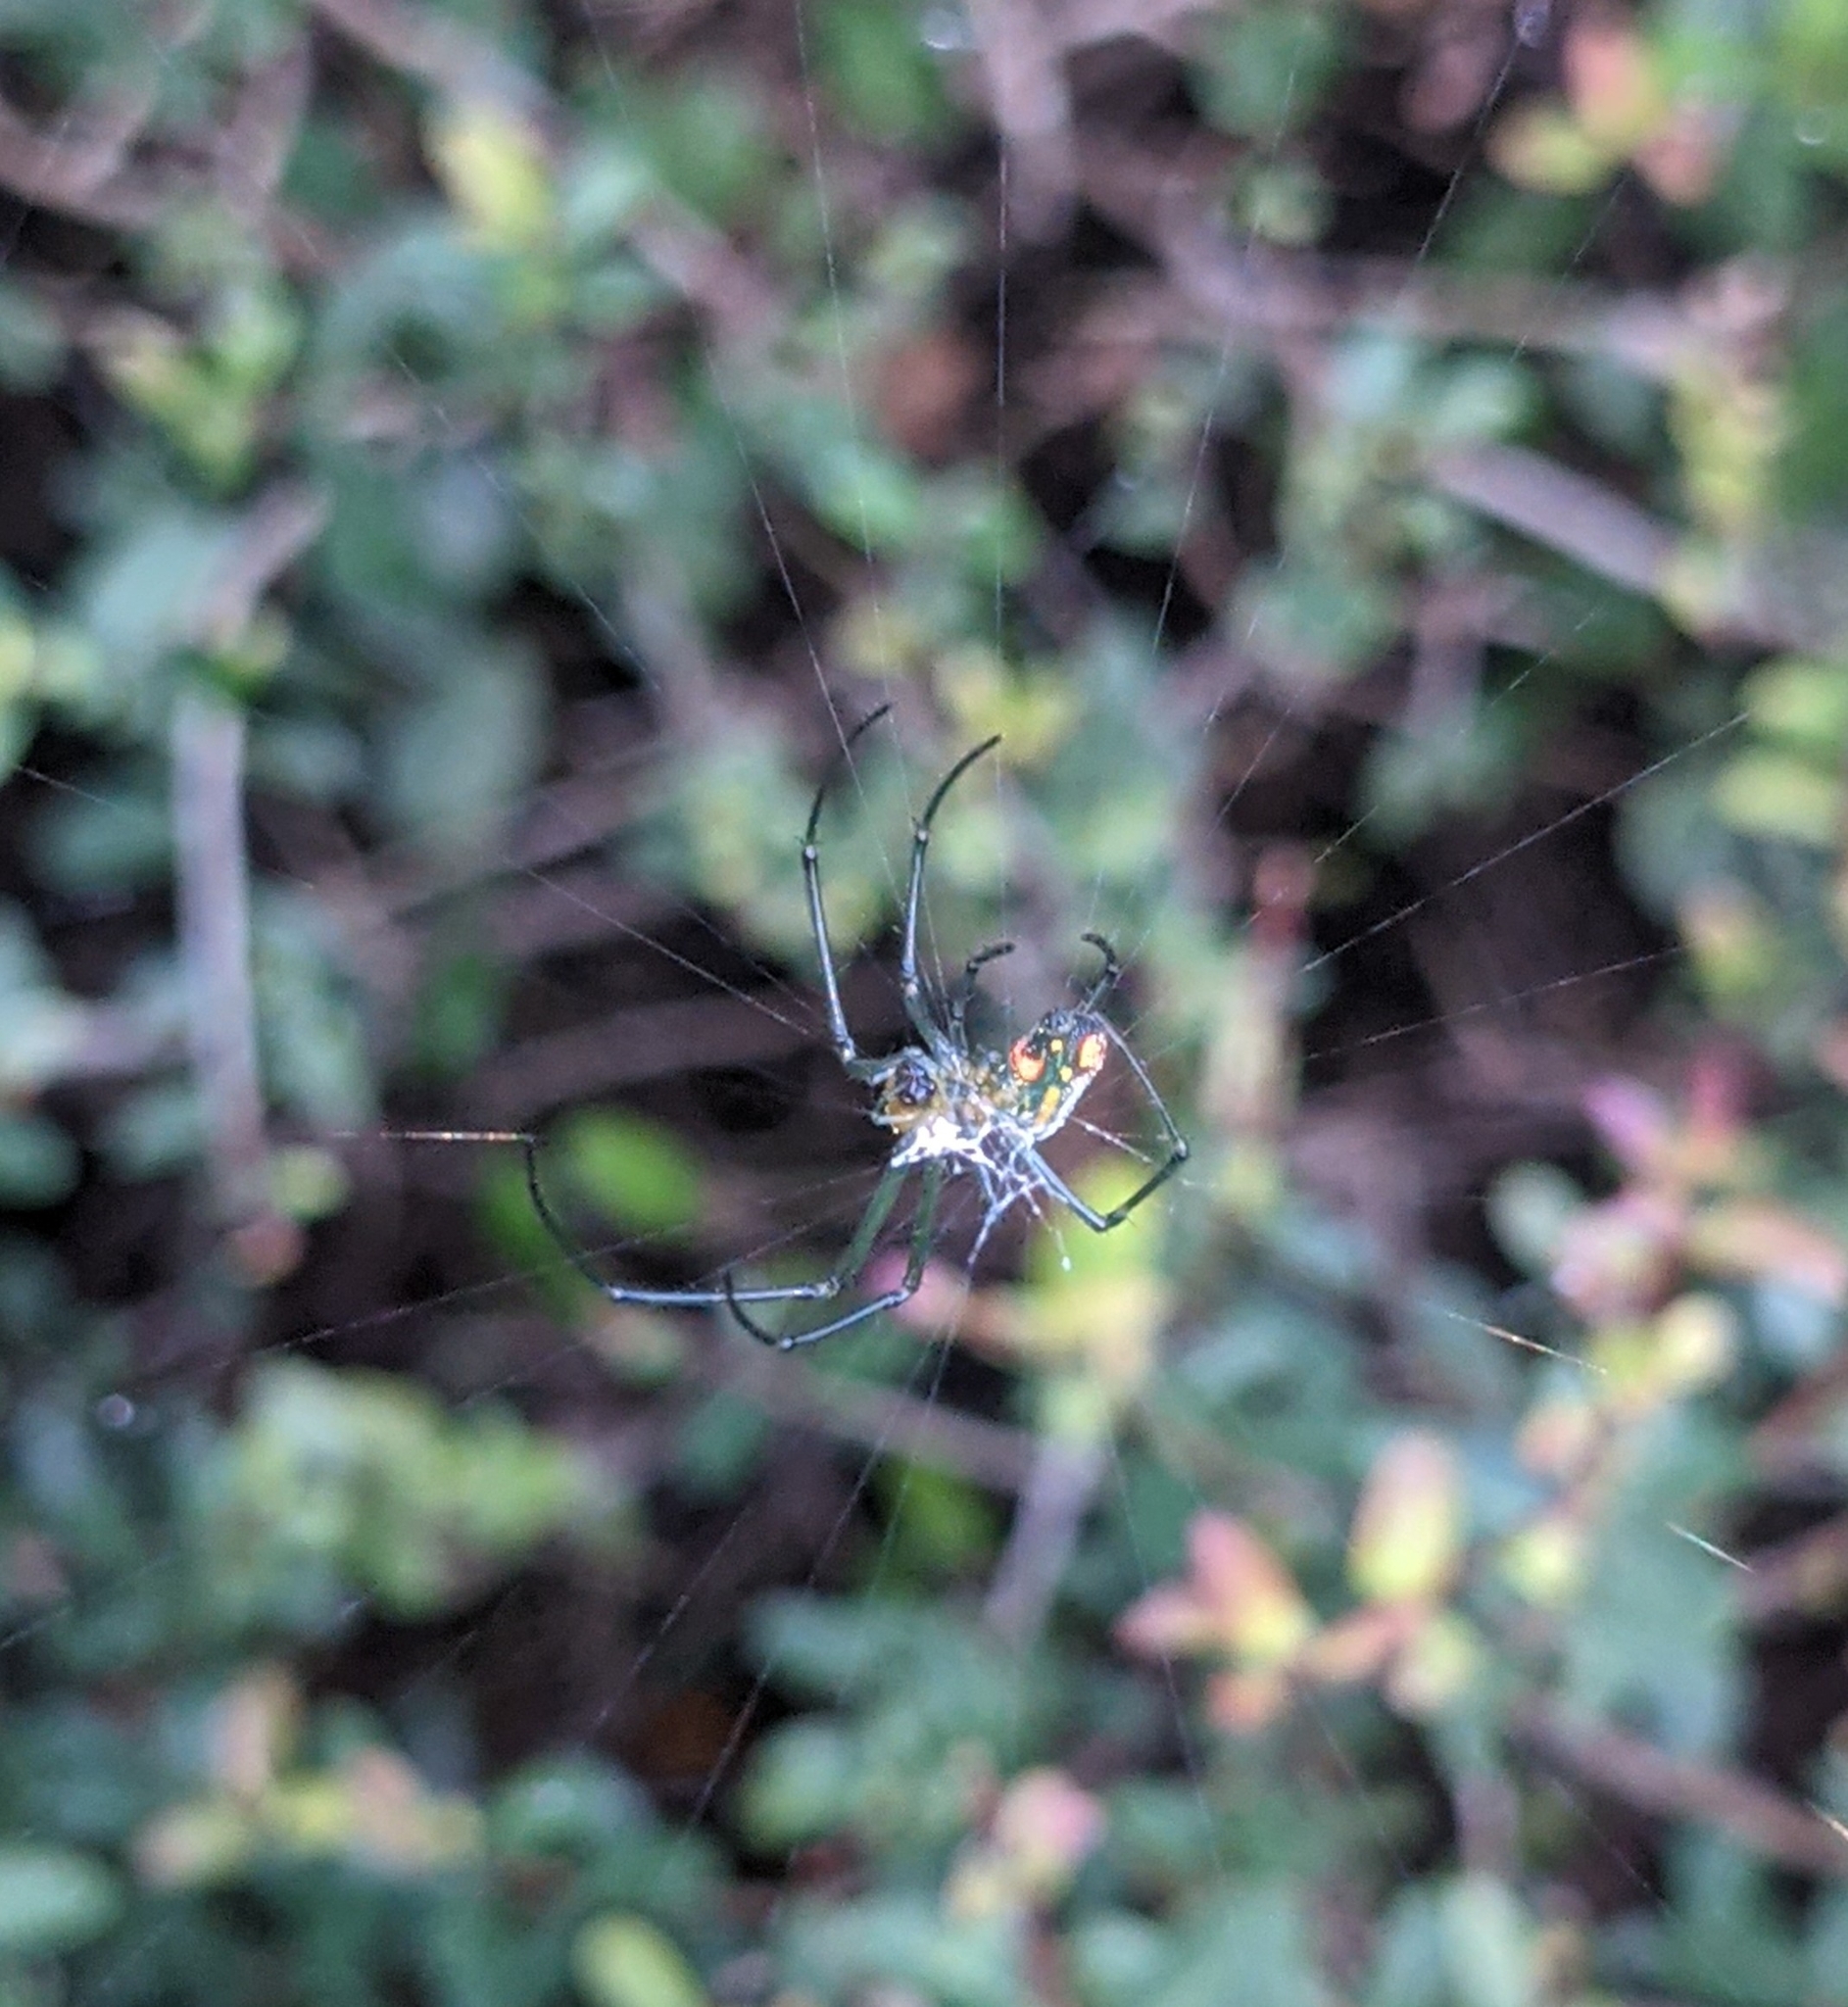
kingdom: Animalia
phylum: Arthropoda
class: Arachnida
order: Araneae
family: Tetragnathidae
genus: Leucauge
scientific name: Leucauge argyrobapta
